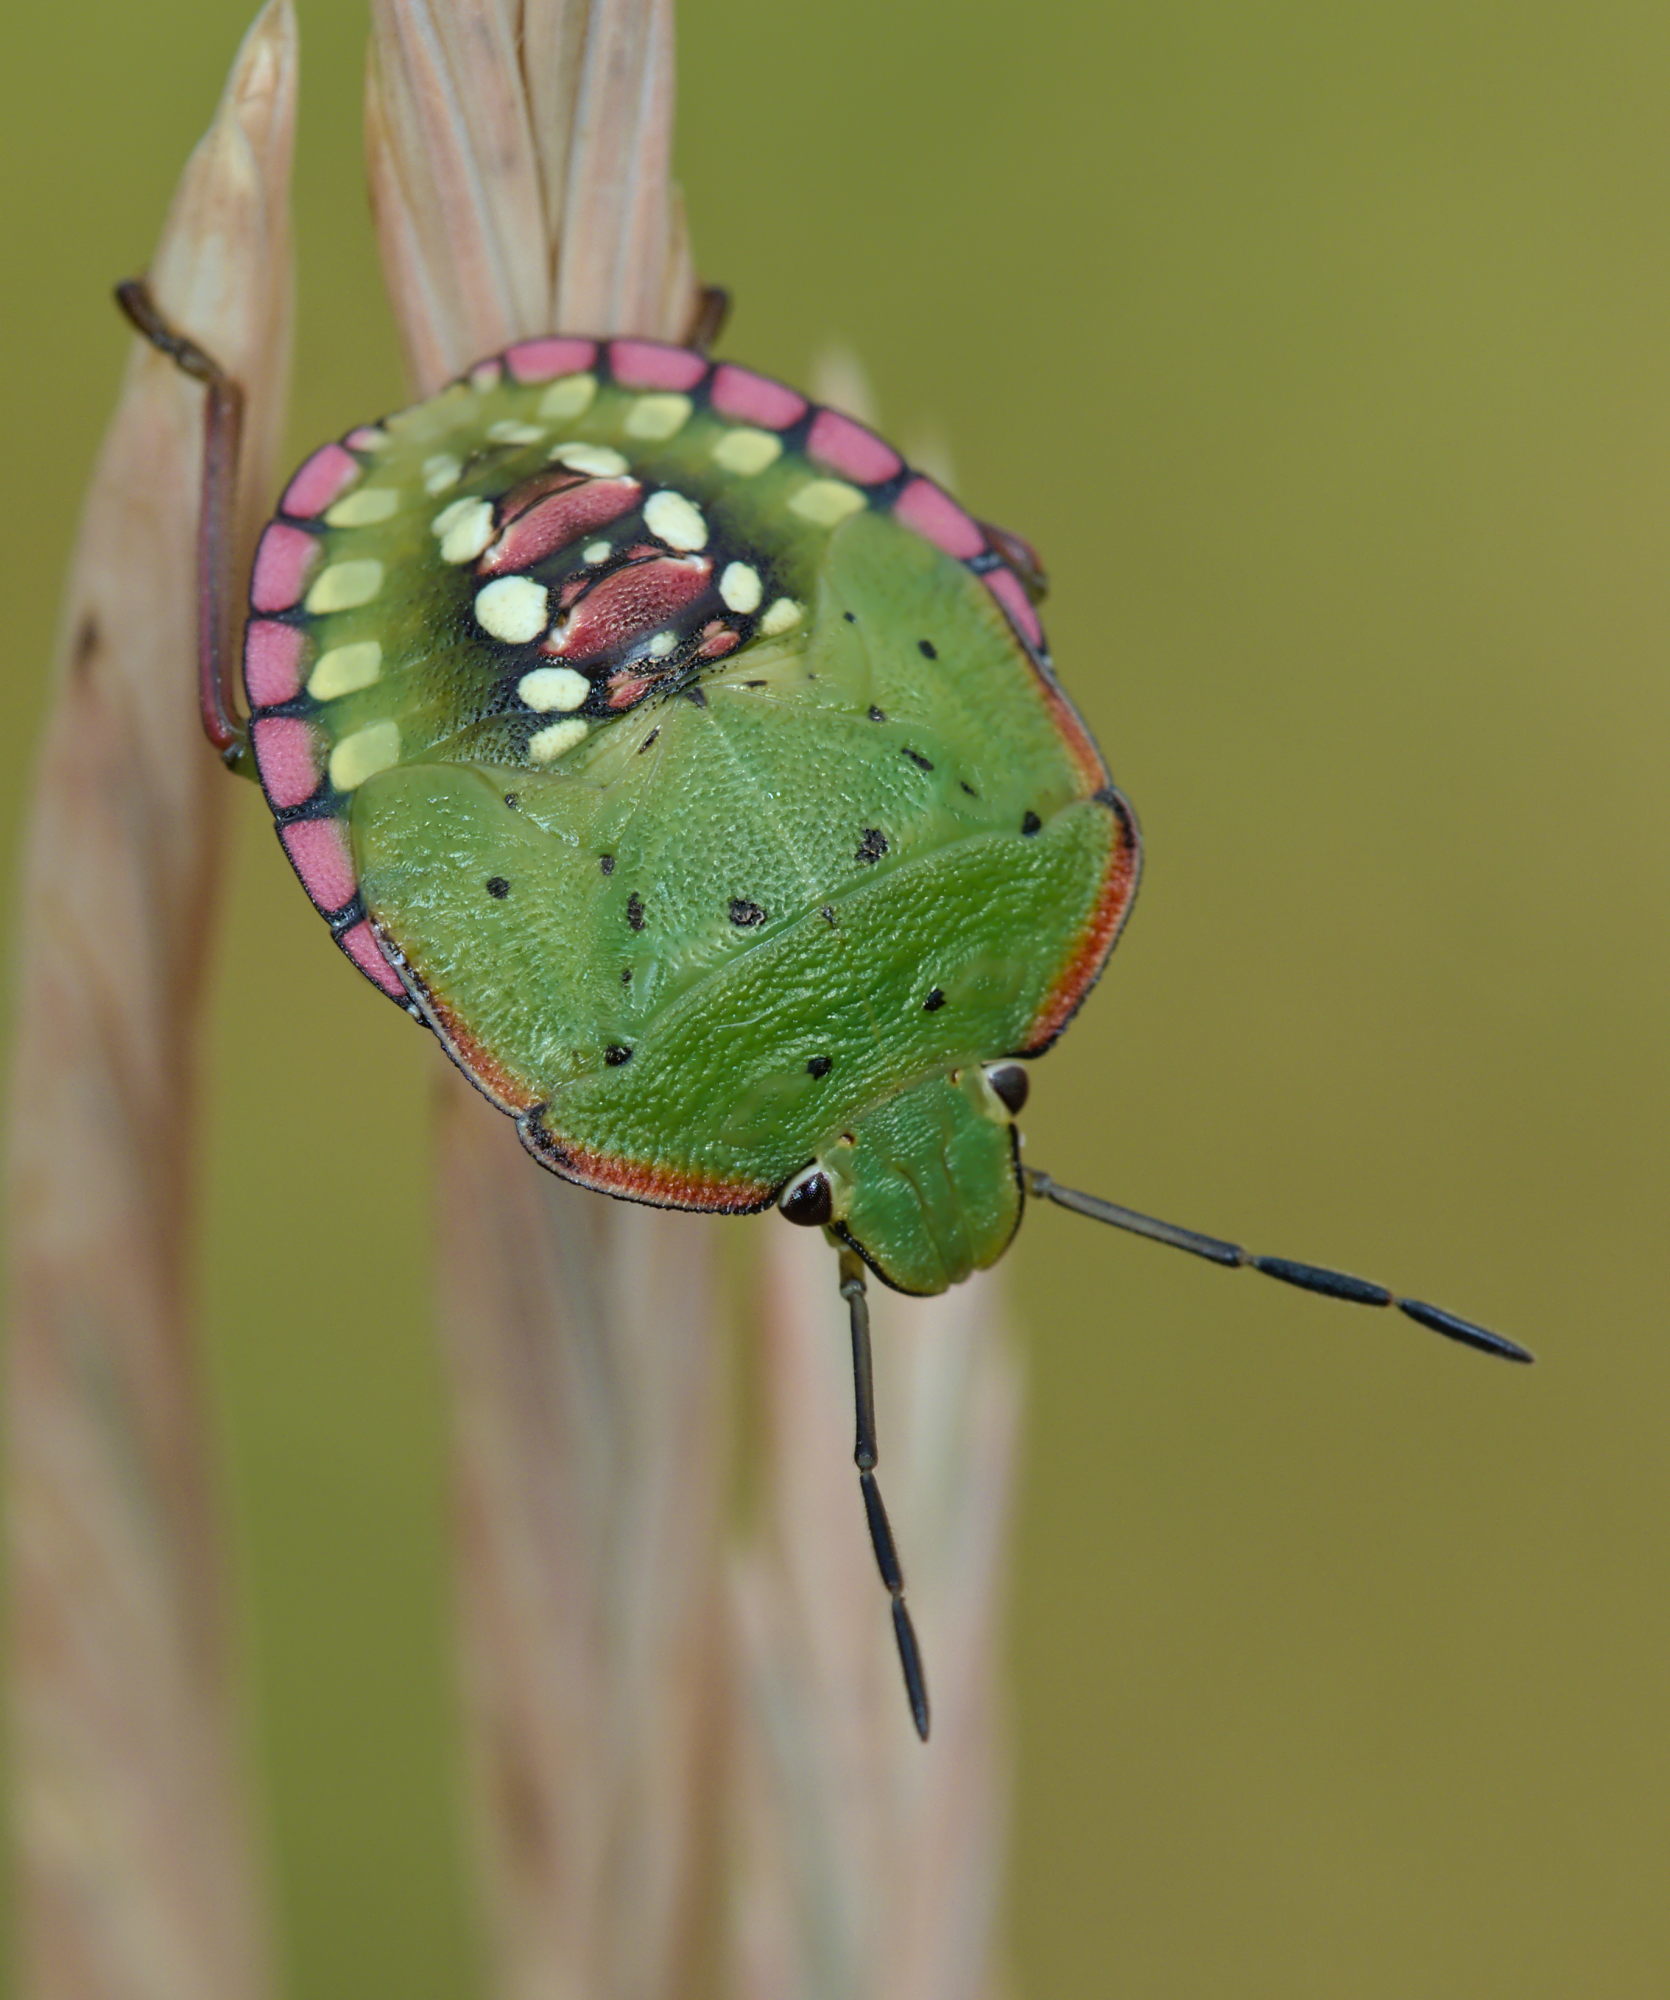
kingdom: Animalia
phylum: Arthropoda
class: Insecta
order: Hemiptera
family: Pentatomidae
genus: Nezara
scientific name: Nezara viridula
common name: Southern green stink bug
